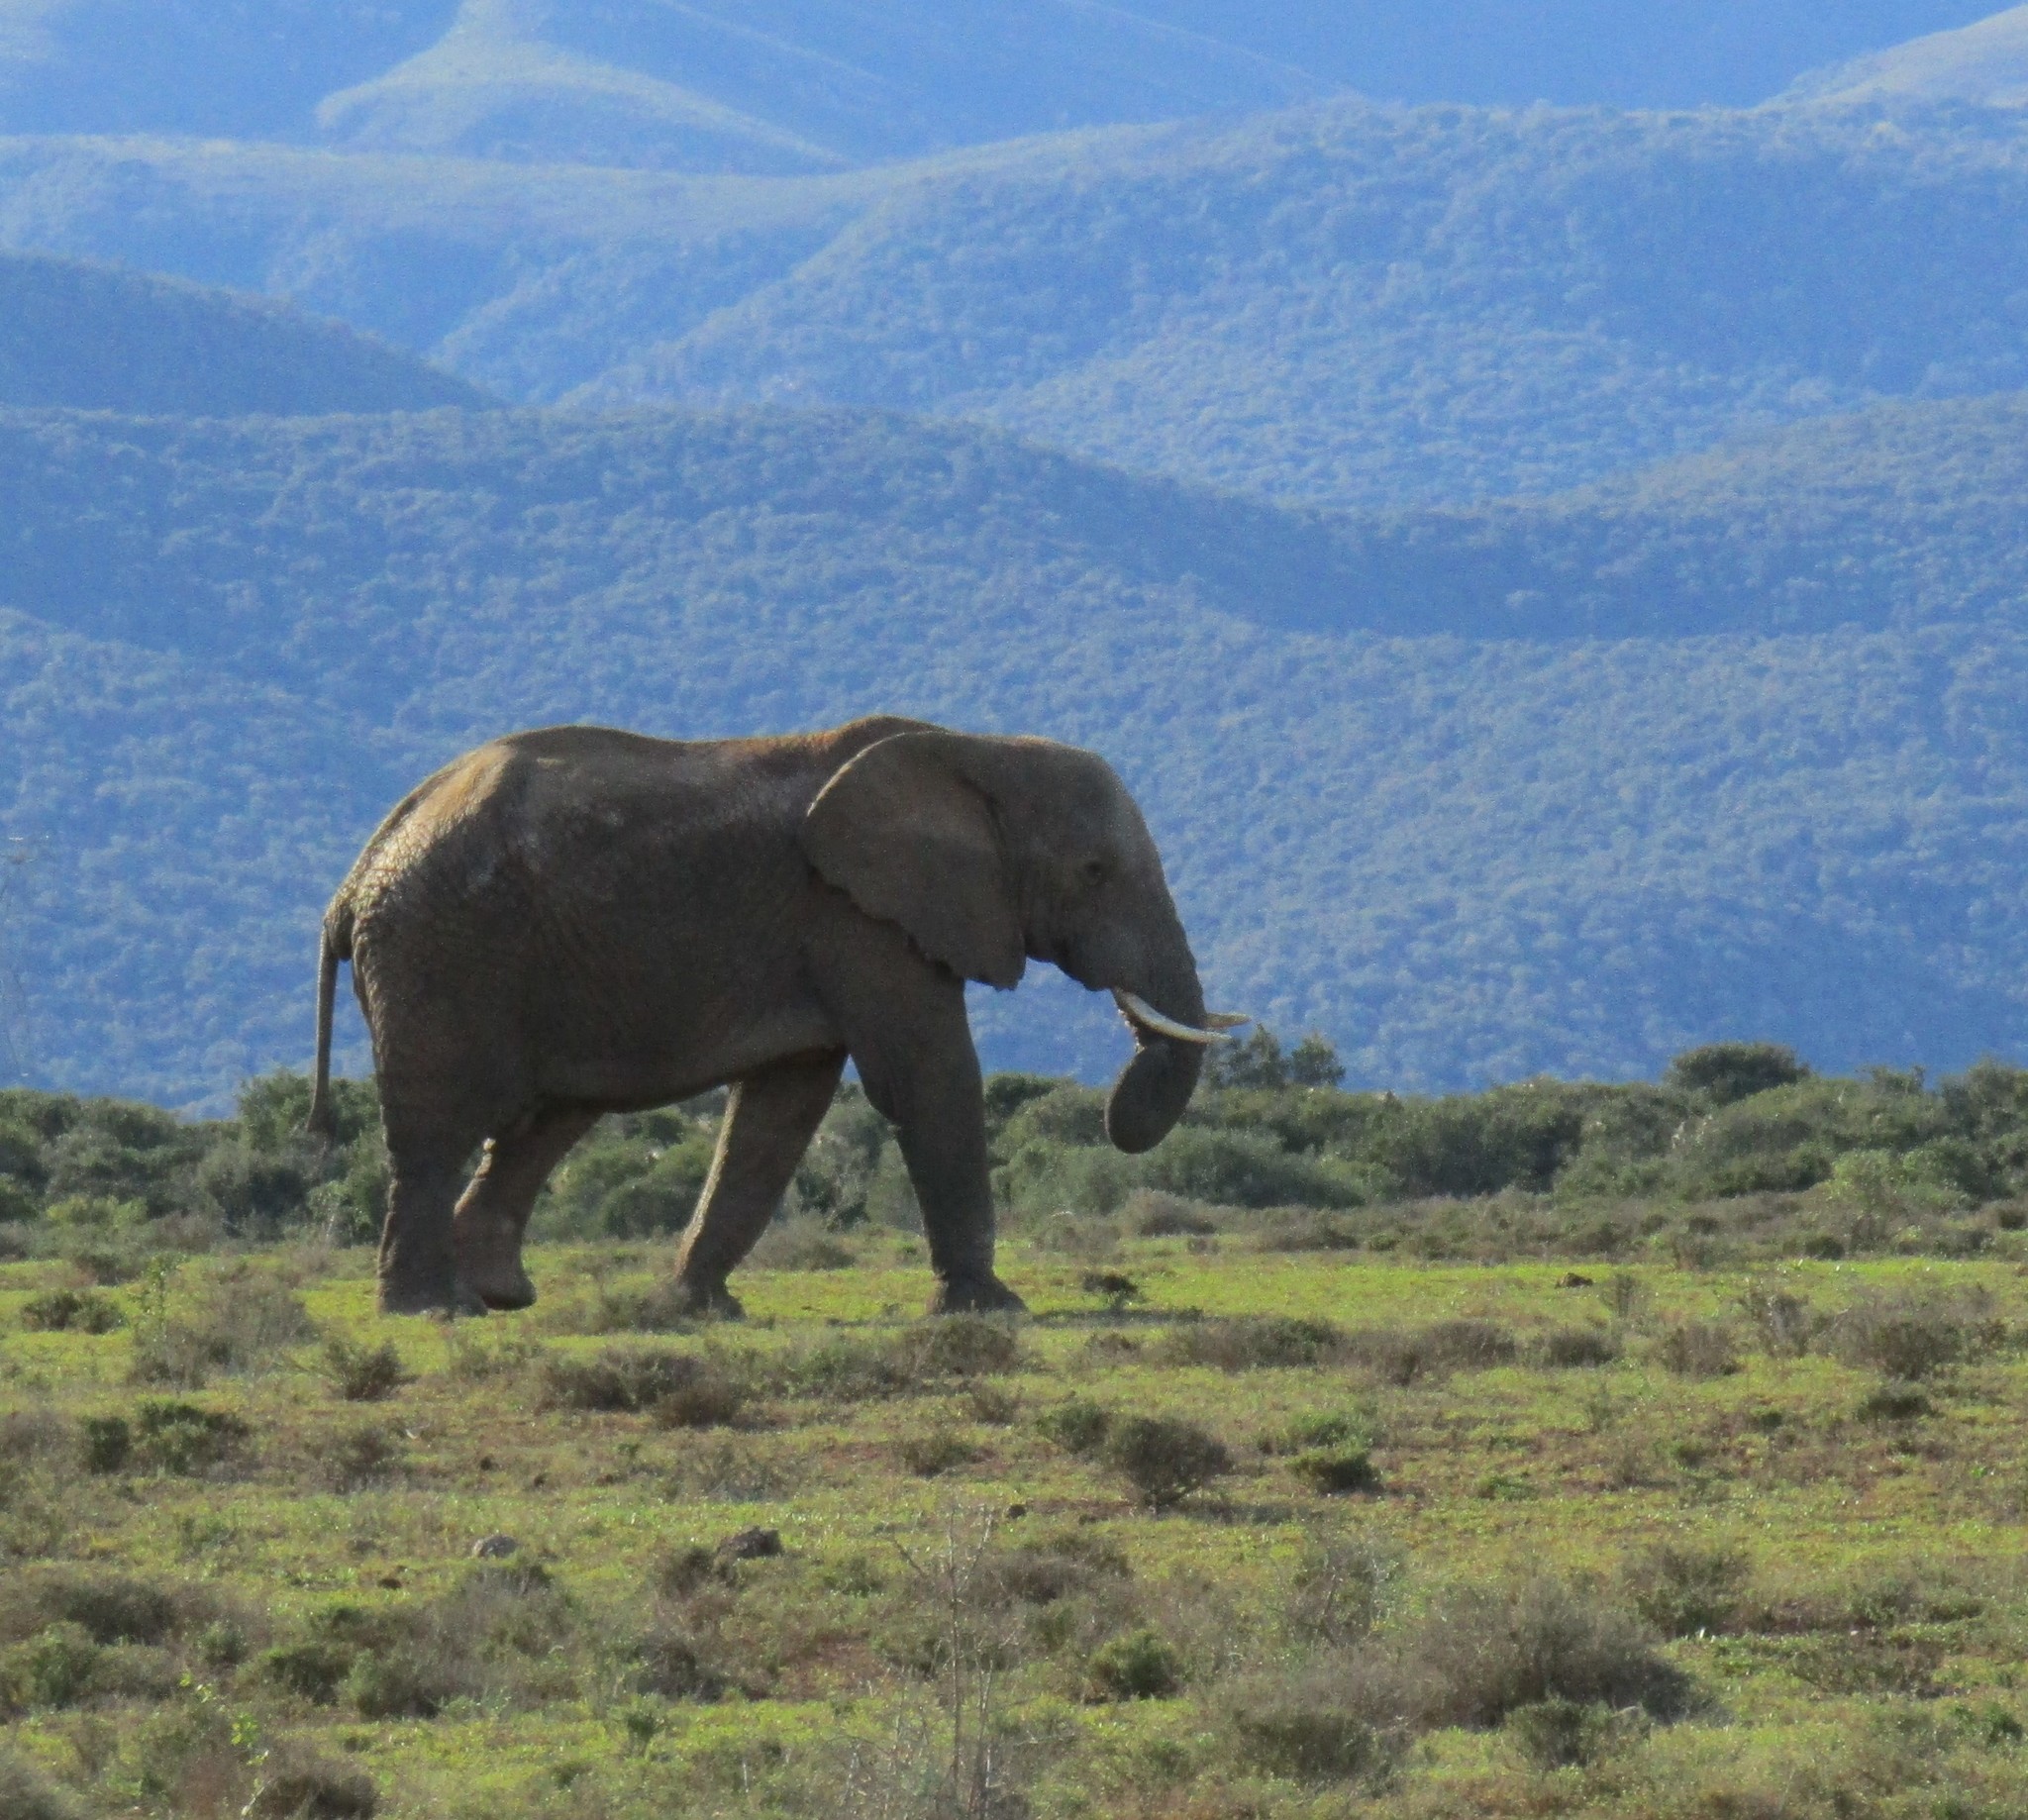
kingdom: Animalia
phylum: Chordata
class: Mammalia
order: Proboscidea
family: Elephantidae
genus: Loxodonta
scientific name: Loxodonta africana
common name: African elephant
